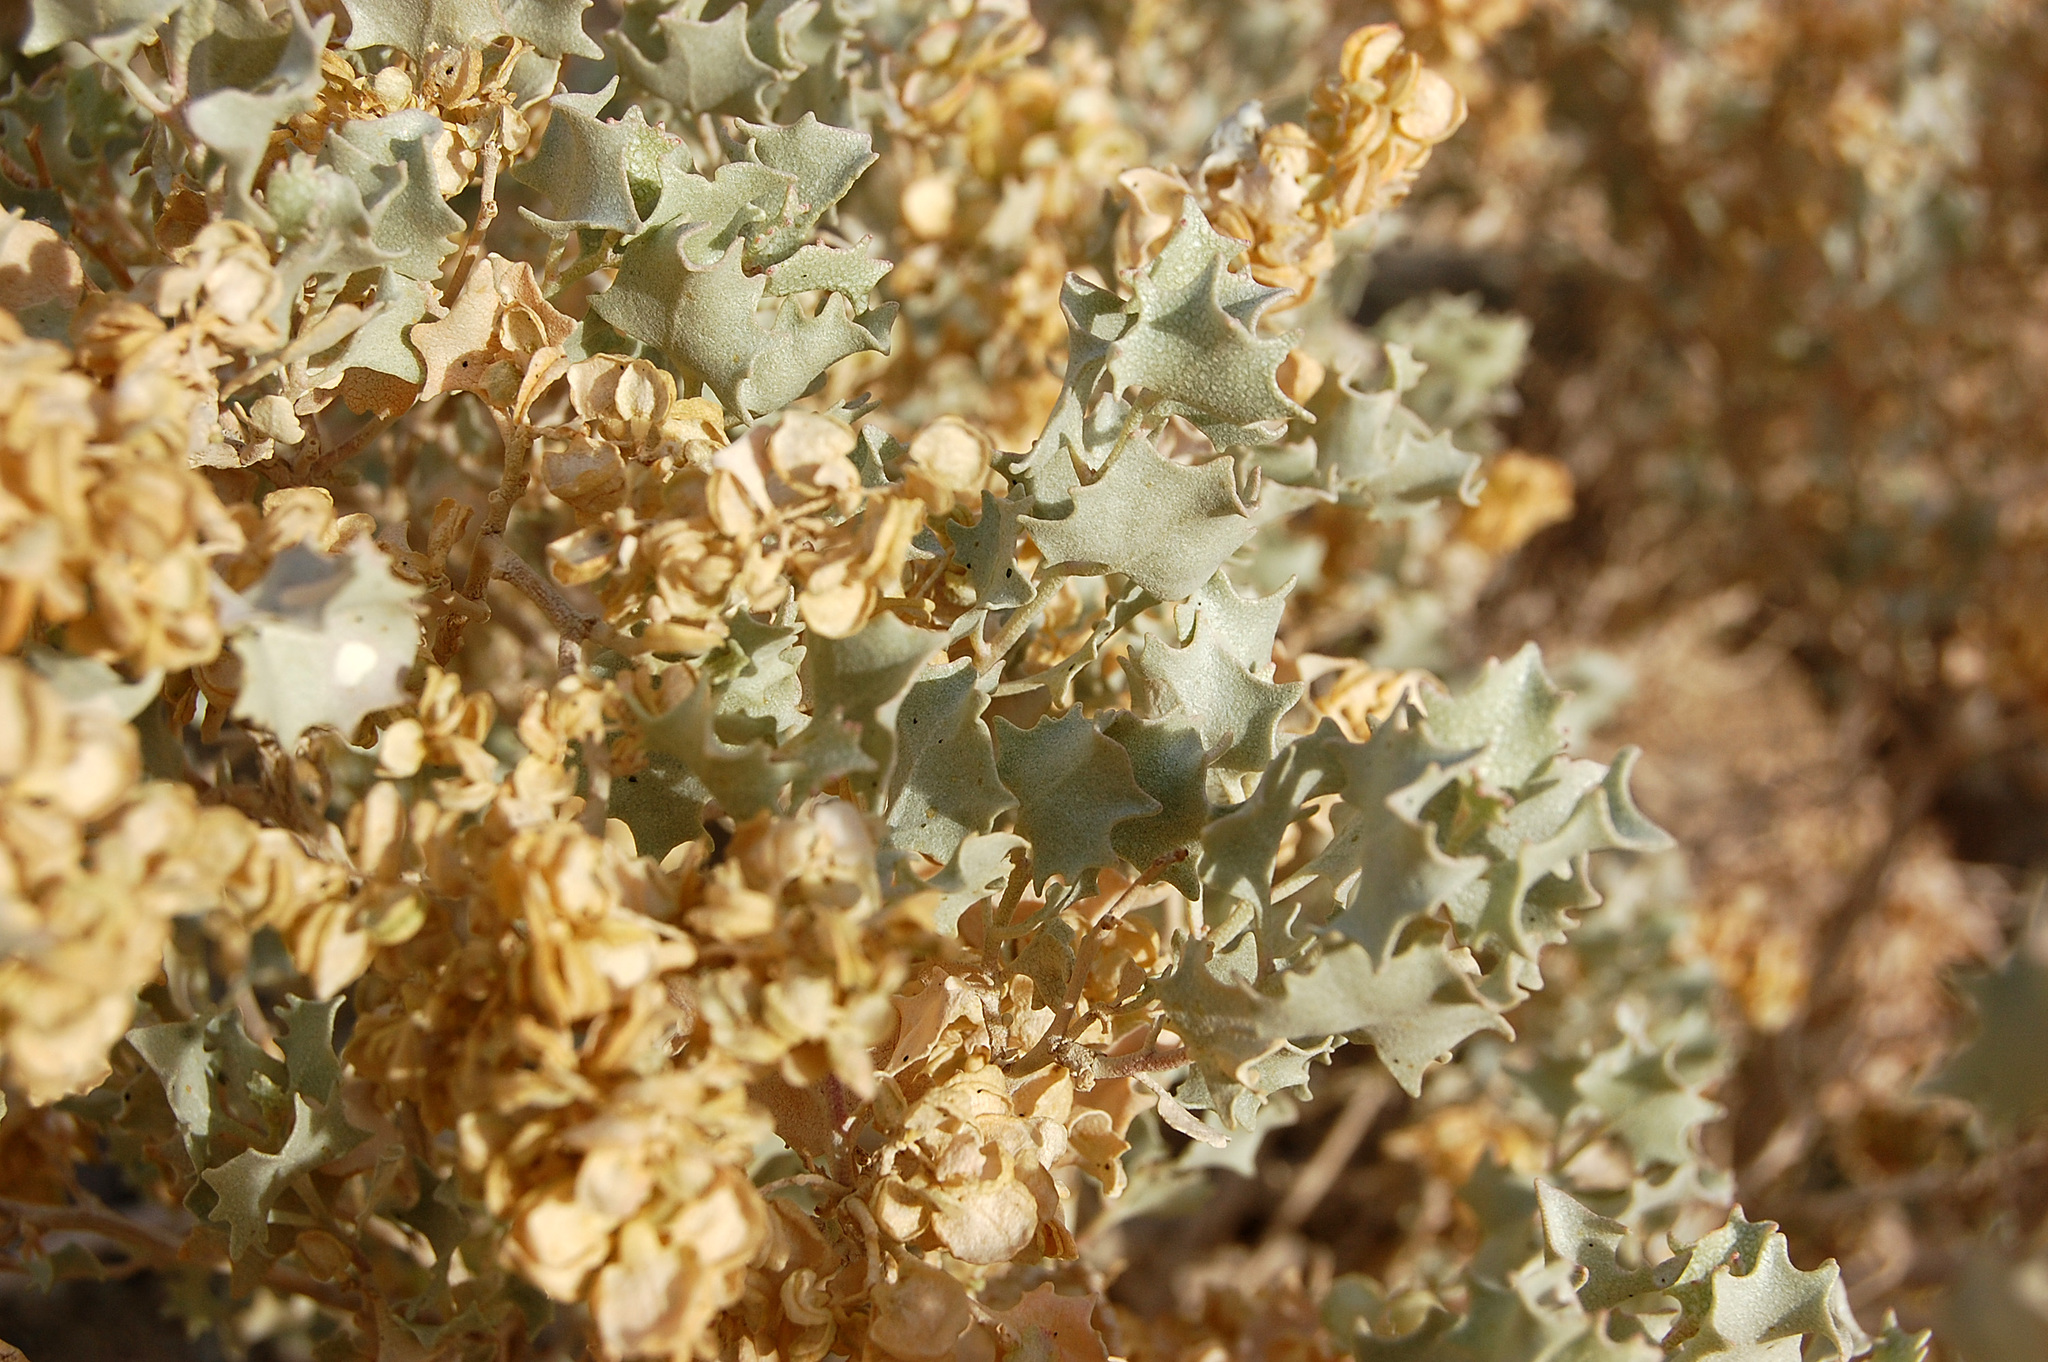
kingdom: Plantae
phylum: Tracheophyta
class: Magnoliopsida
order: Caryophyllales
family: Amaranthaceae
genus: Atriplex
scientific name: Atriplex hymenelytra
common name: Desert-holly
